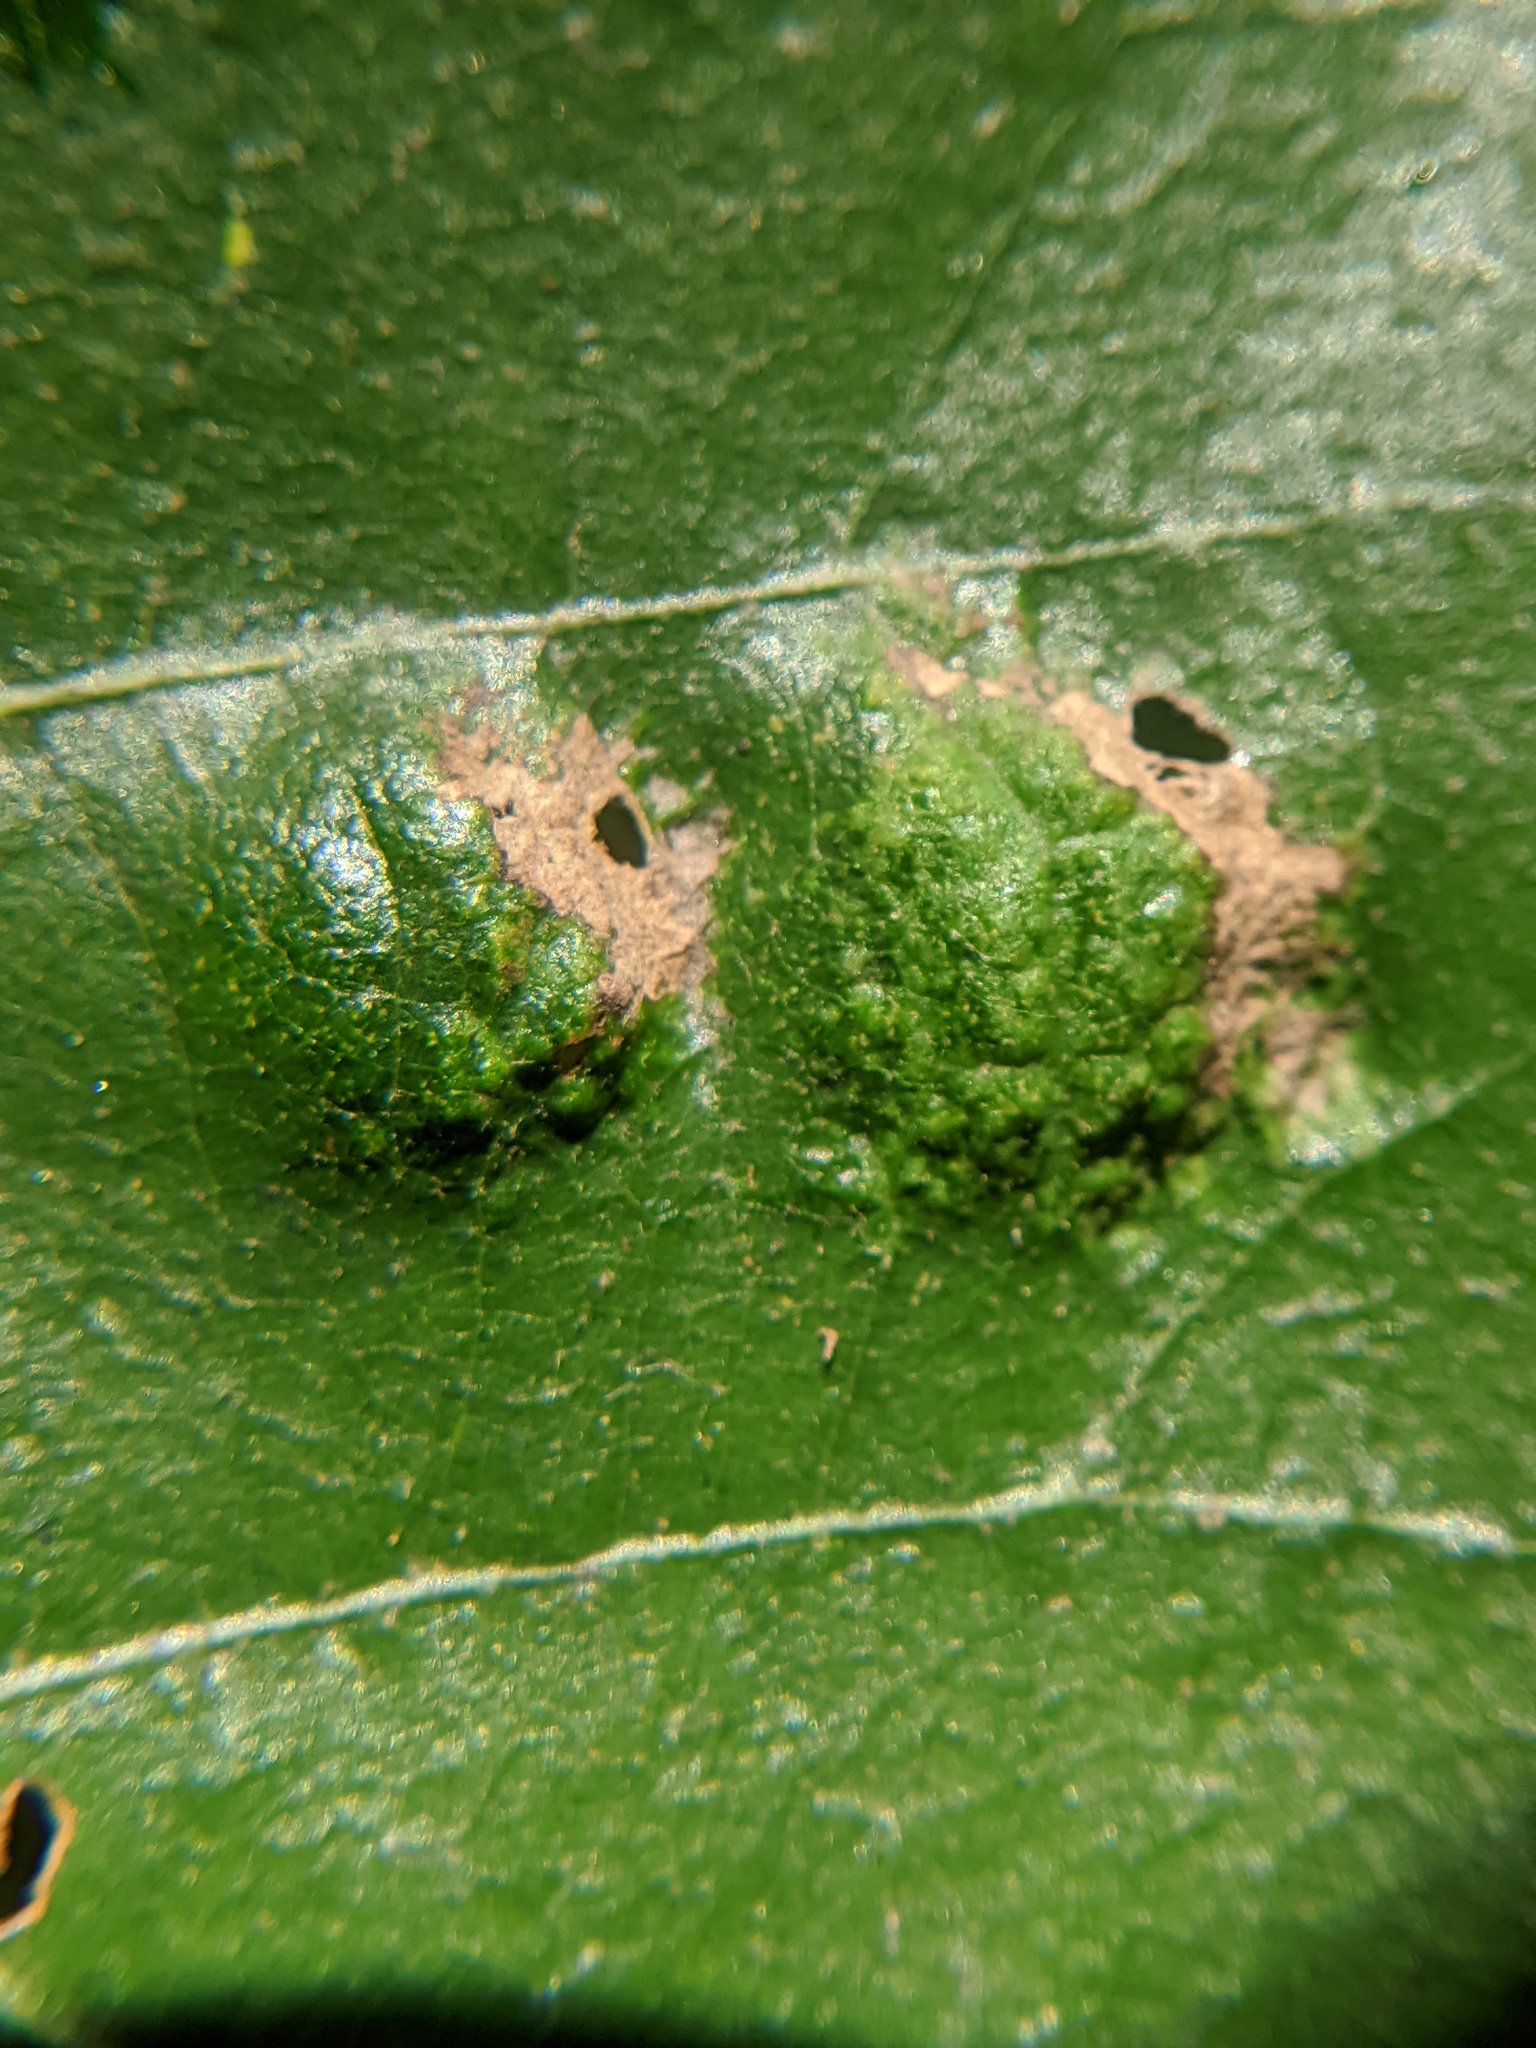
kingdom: Fungi
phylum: Ascomycota
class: Taphrinomycetes
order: Taphrinales
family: Taphrinaceae
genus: Taphrina
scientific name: Taphrina caerulescens
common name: Oak leaf blister
